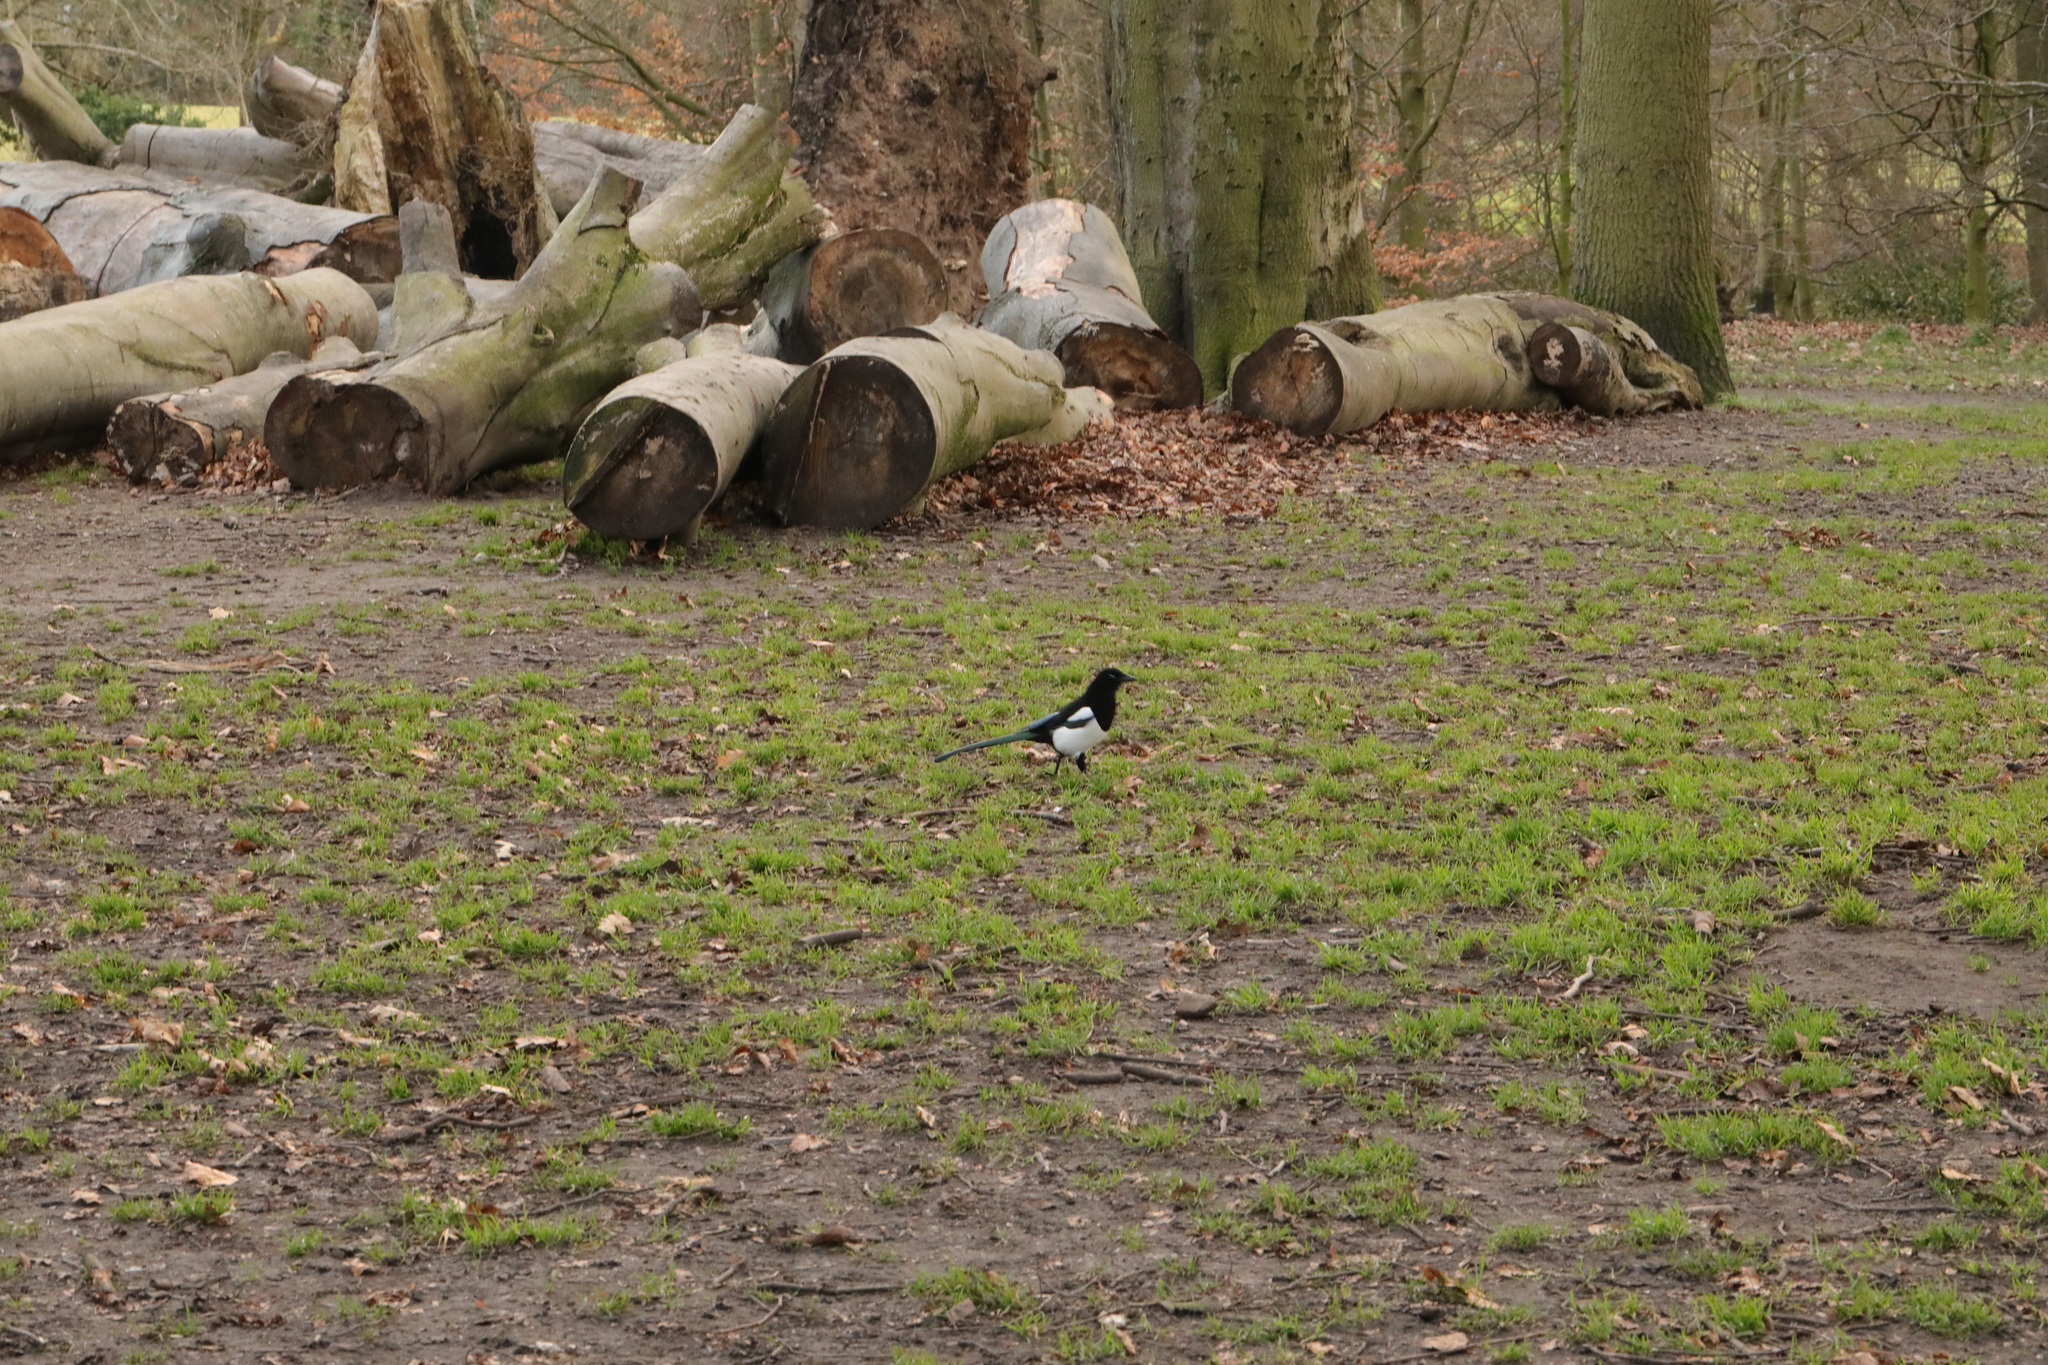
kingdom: Animalia
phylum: Chordata
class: Aves
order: Passeriformes
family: Corvidae
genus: Pica
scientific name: Pica pica
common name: Eurasian magpie
